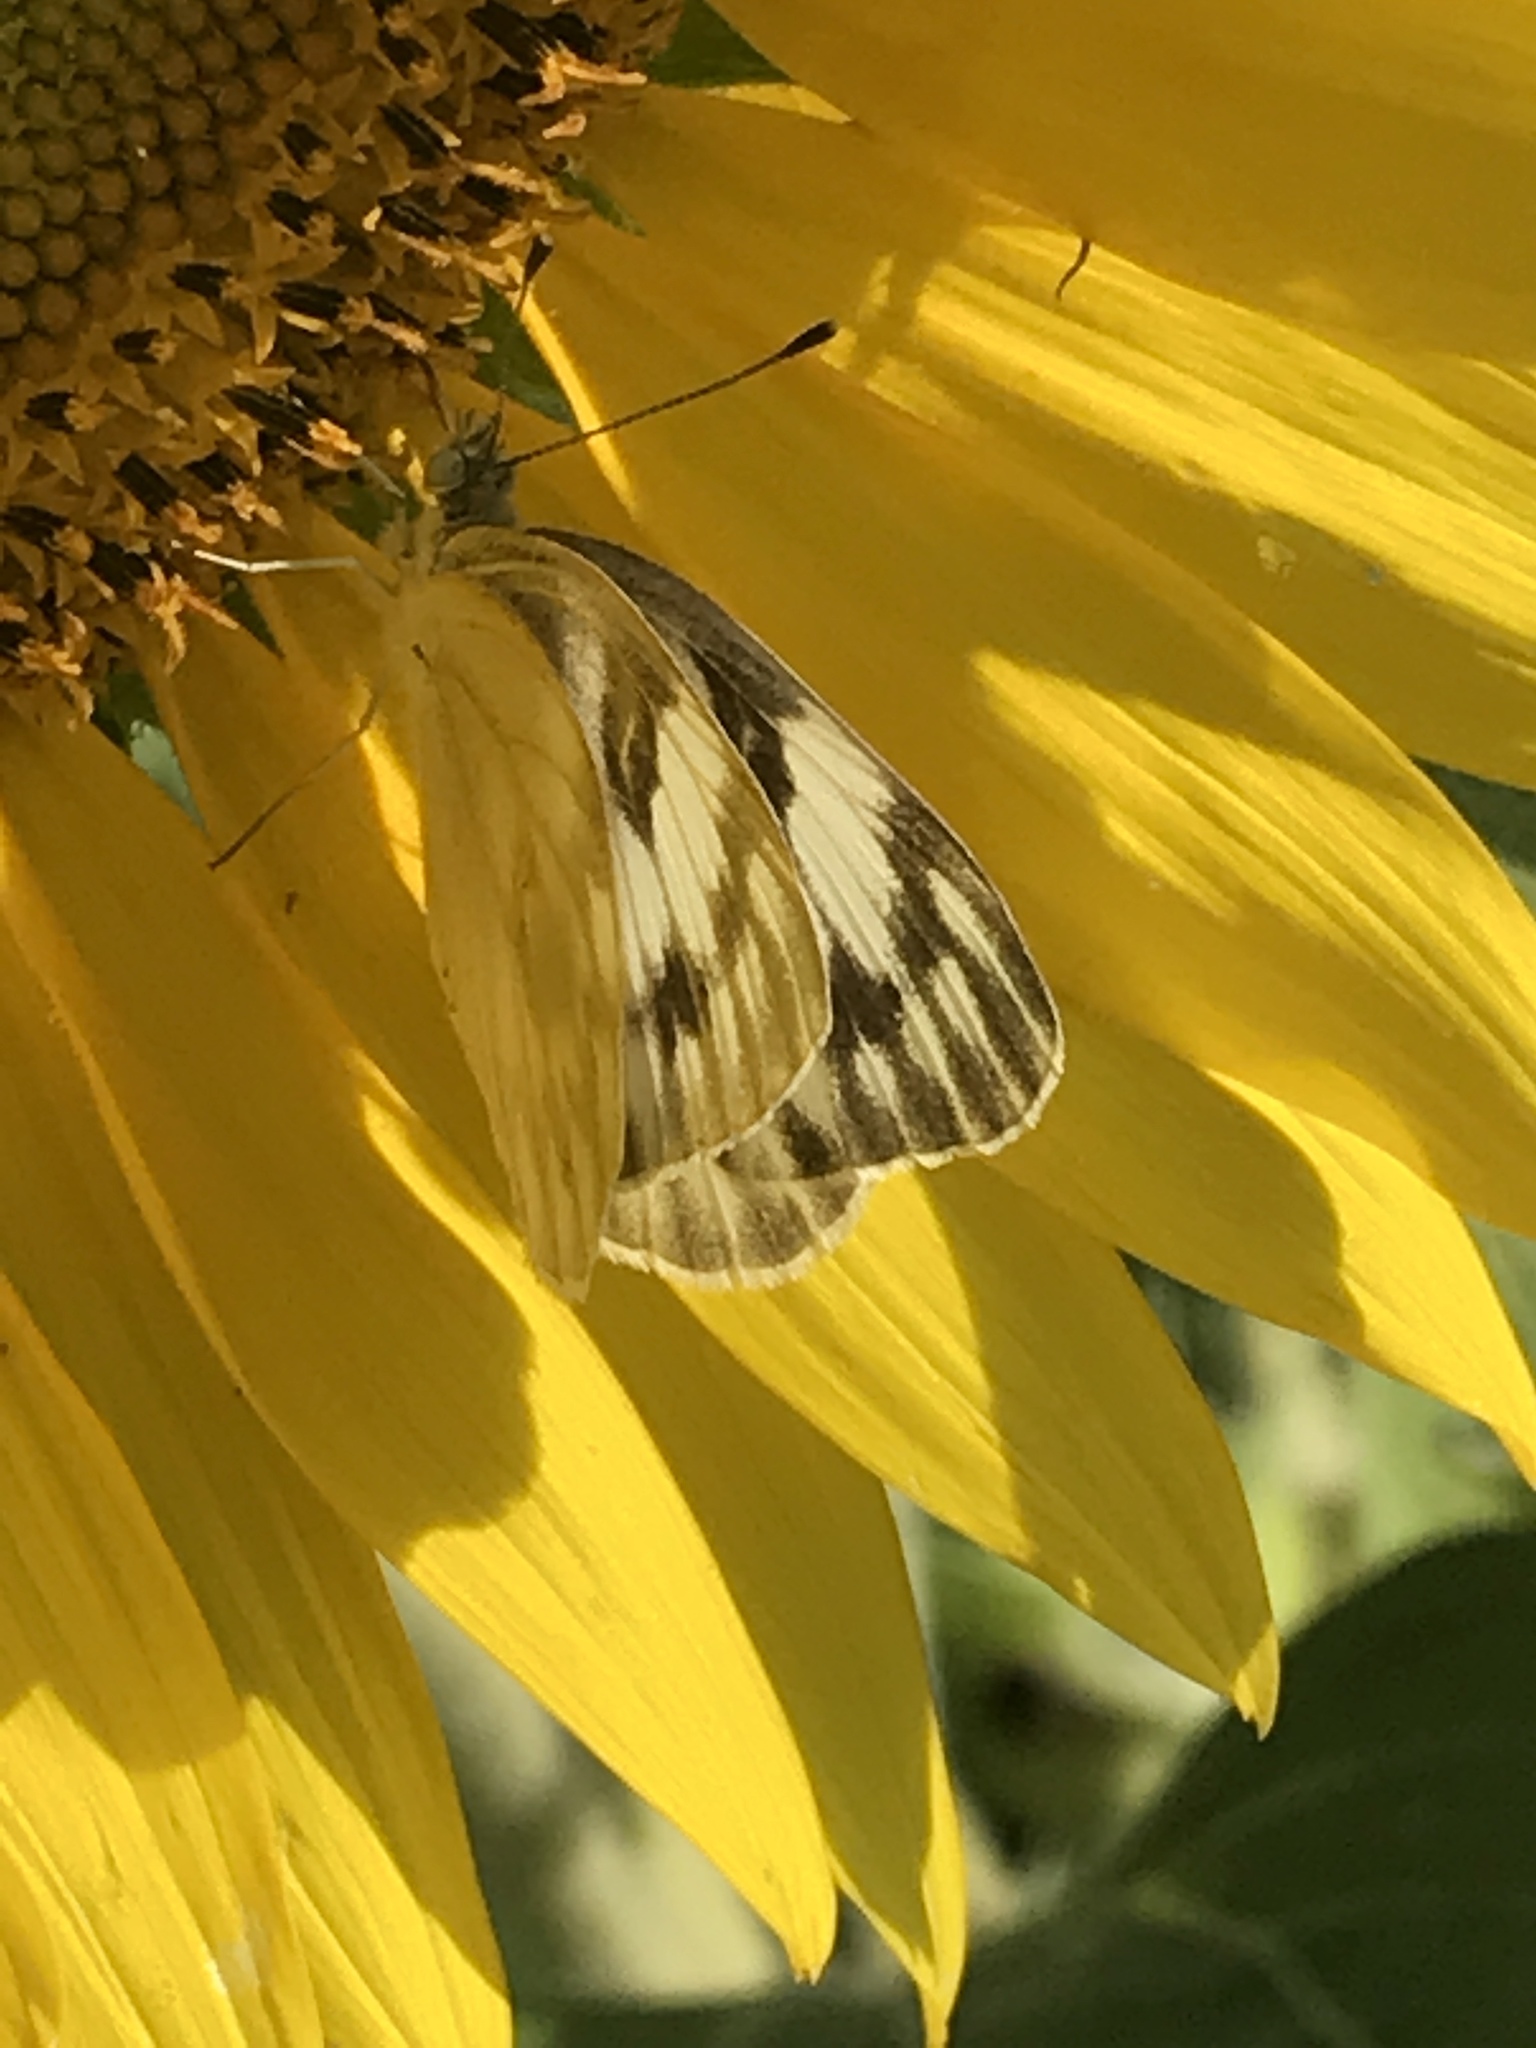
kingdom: Animalia
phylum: Arthropoda
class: Insecta
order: Lepidoptera
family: Pieridae
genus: Pontia
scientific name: Pontia protodice
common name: Checkered white
